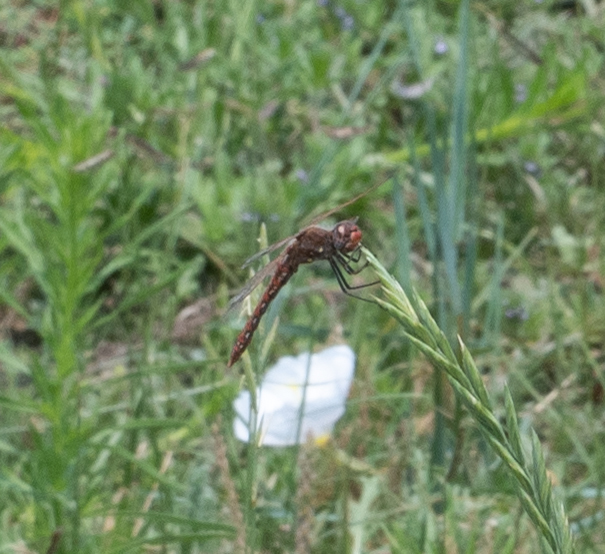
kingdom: Animalia
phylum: Arthropoda
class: Insecta
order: Odonata
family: Libellulidae
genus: Sympetrum
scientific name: Sympetrum corruptum
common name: Variegated meadowhawk
